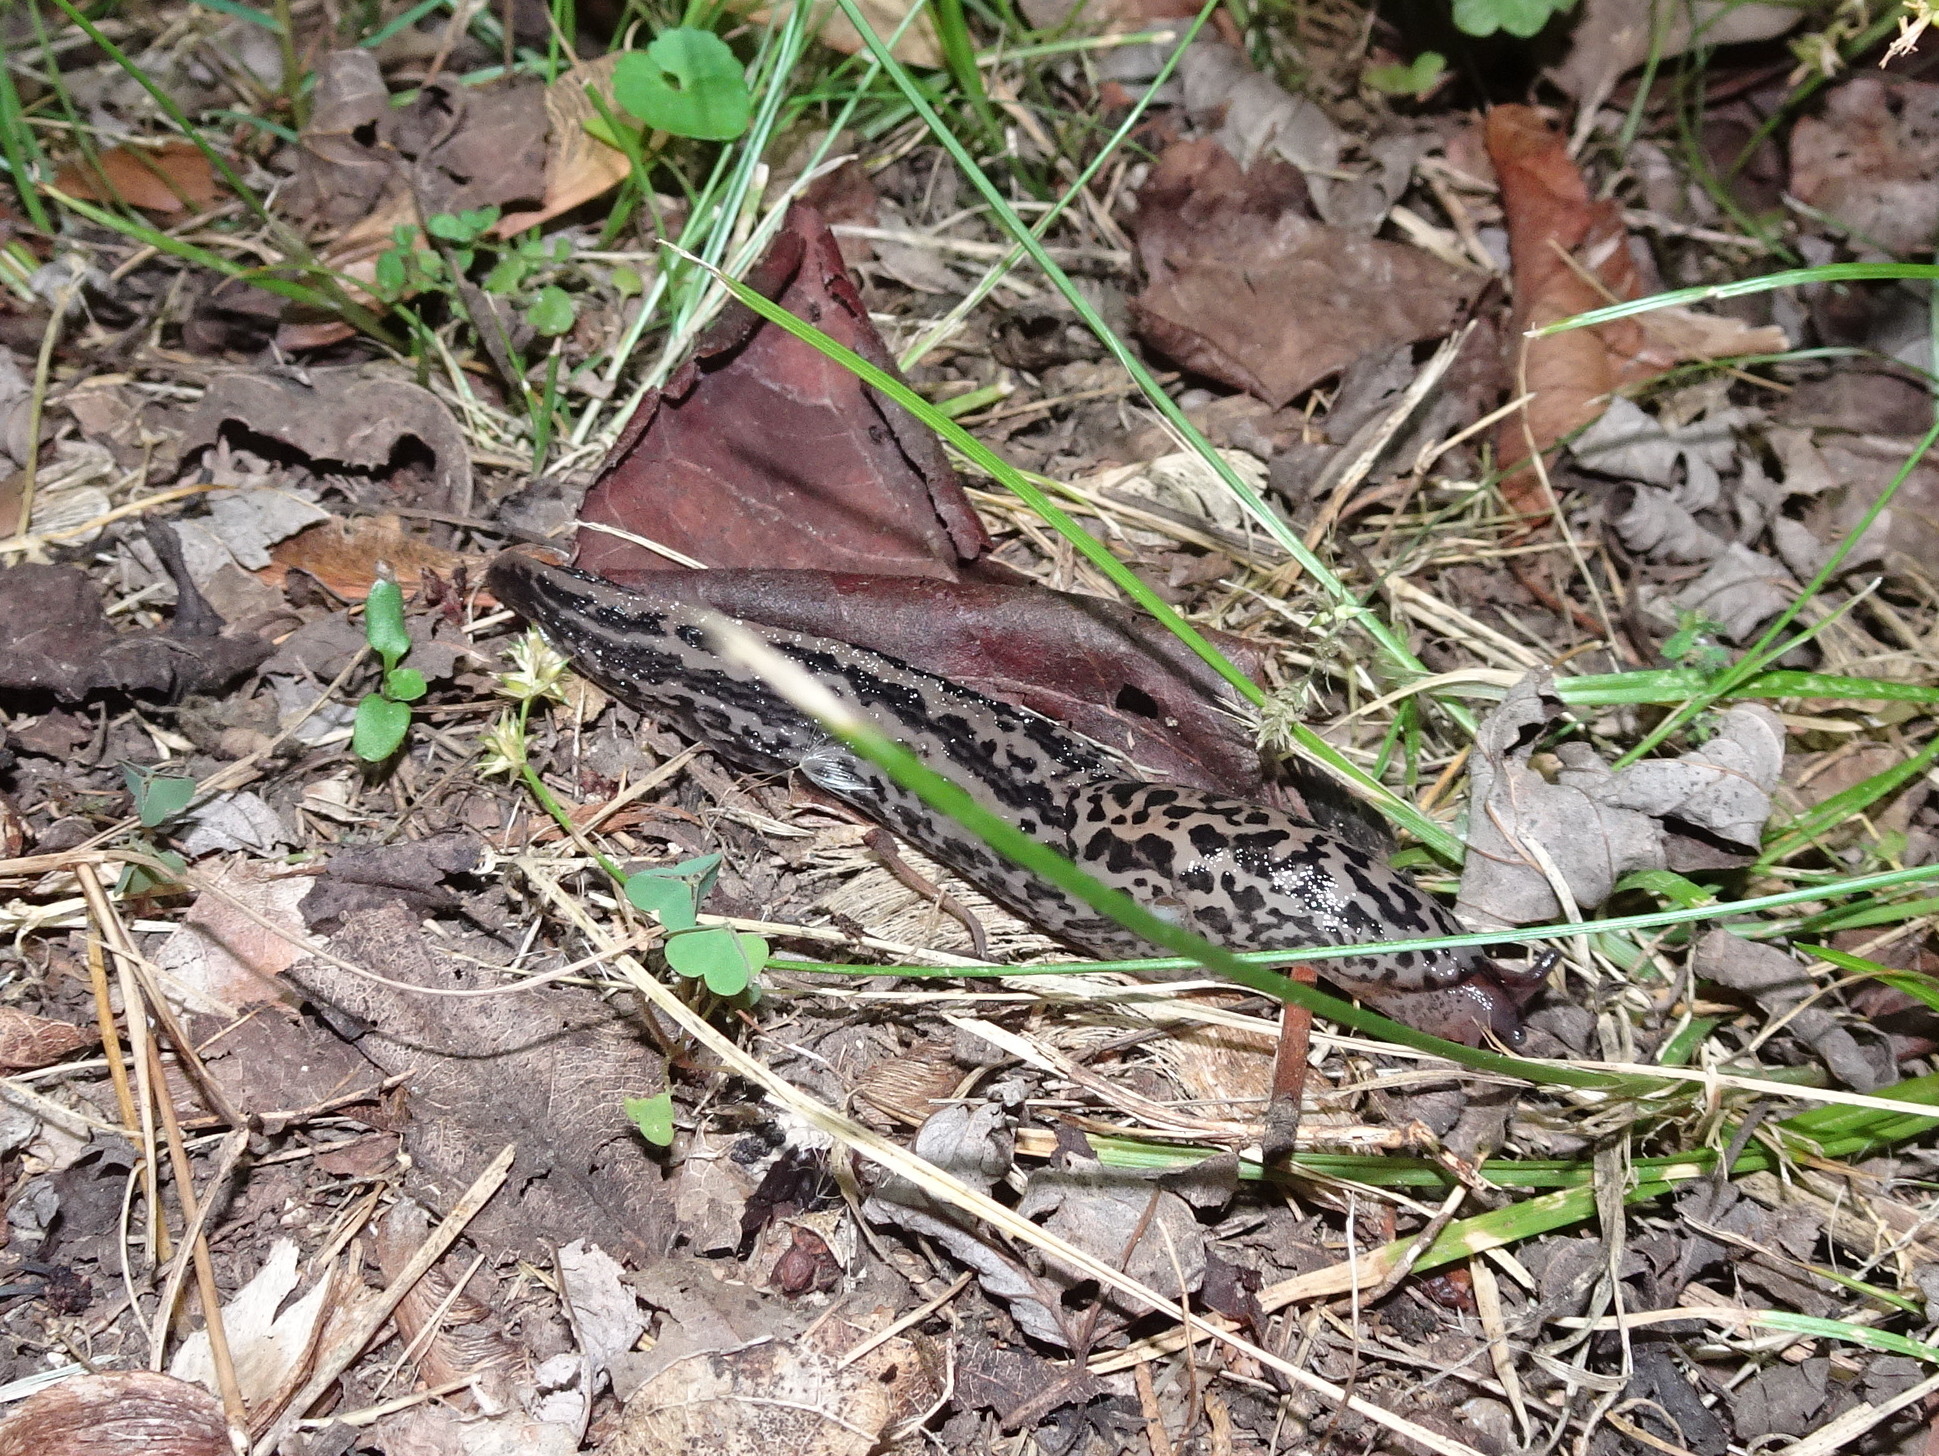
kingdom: Animalia
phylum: Mollusca
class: Gastropoda
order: Stylommatophora
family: Limacidae
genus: Limax
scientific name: Limax maximus
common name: Great grey slug
